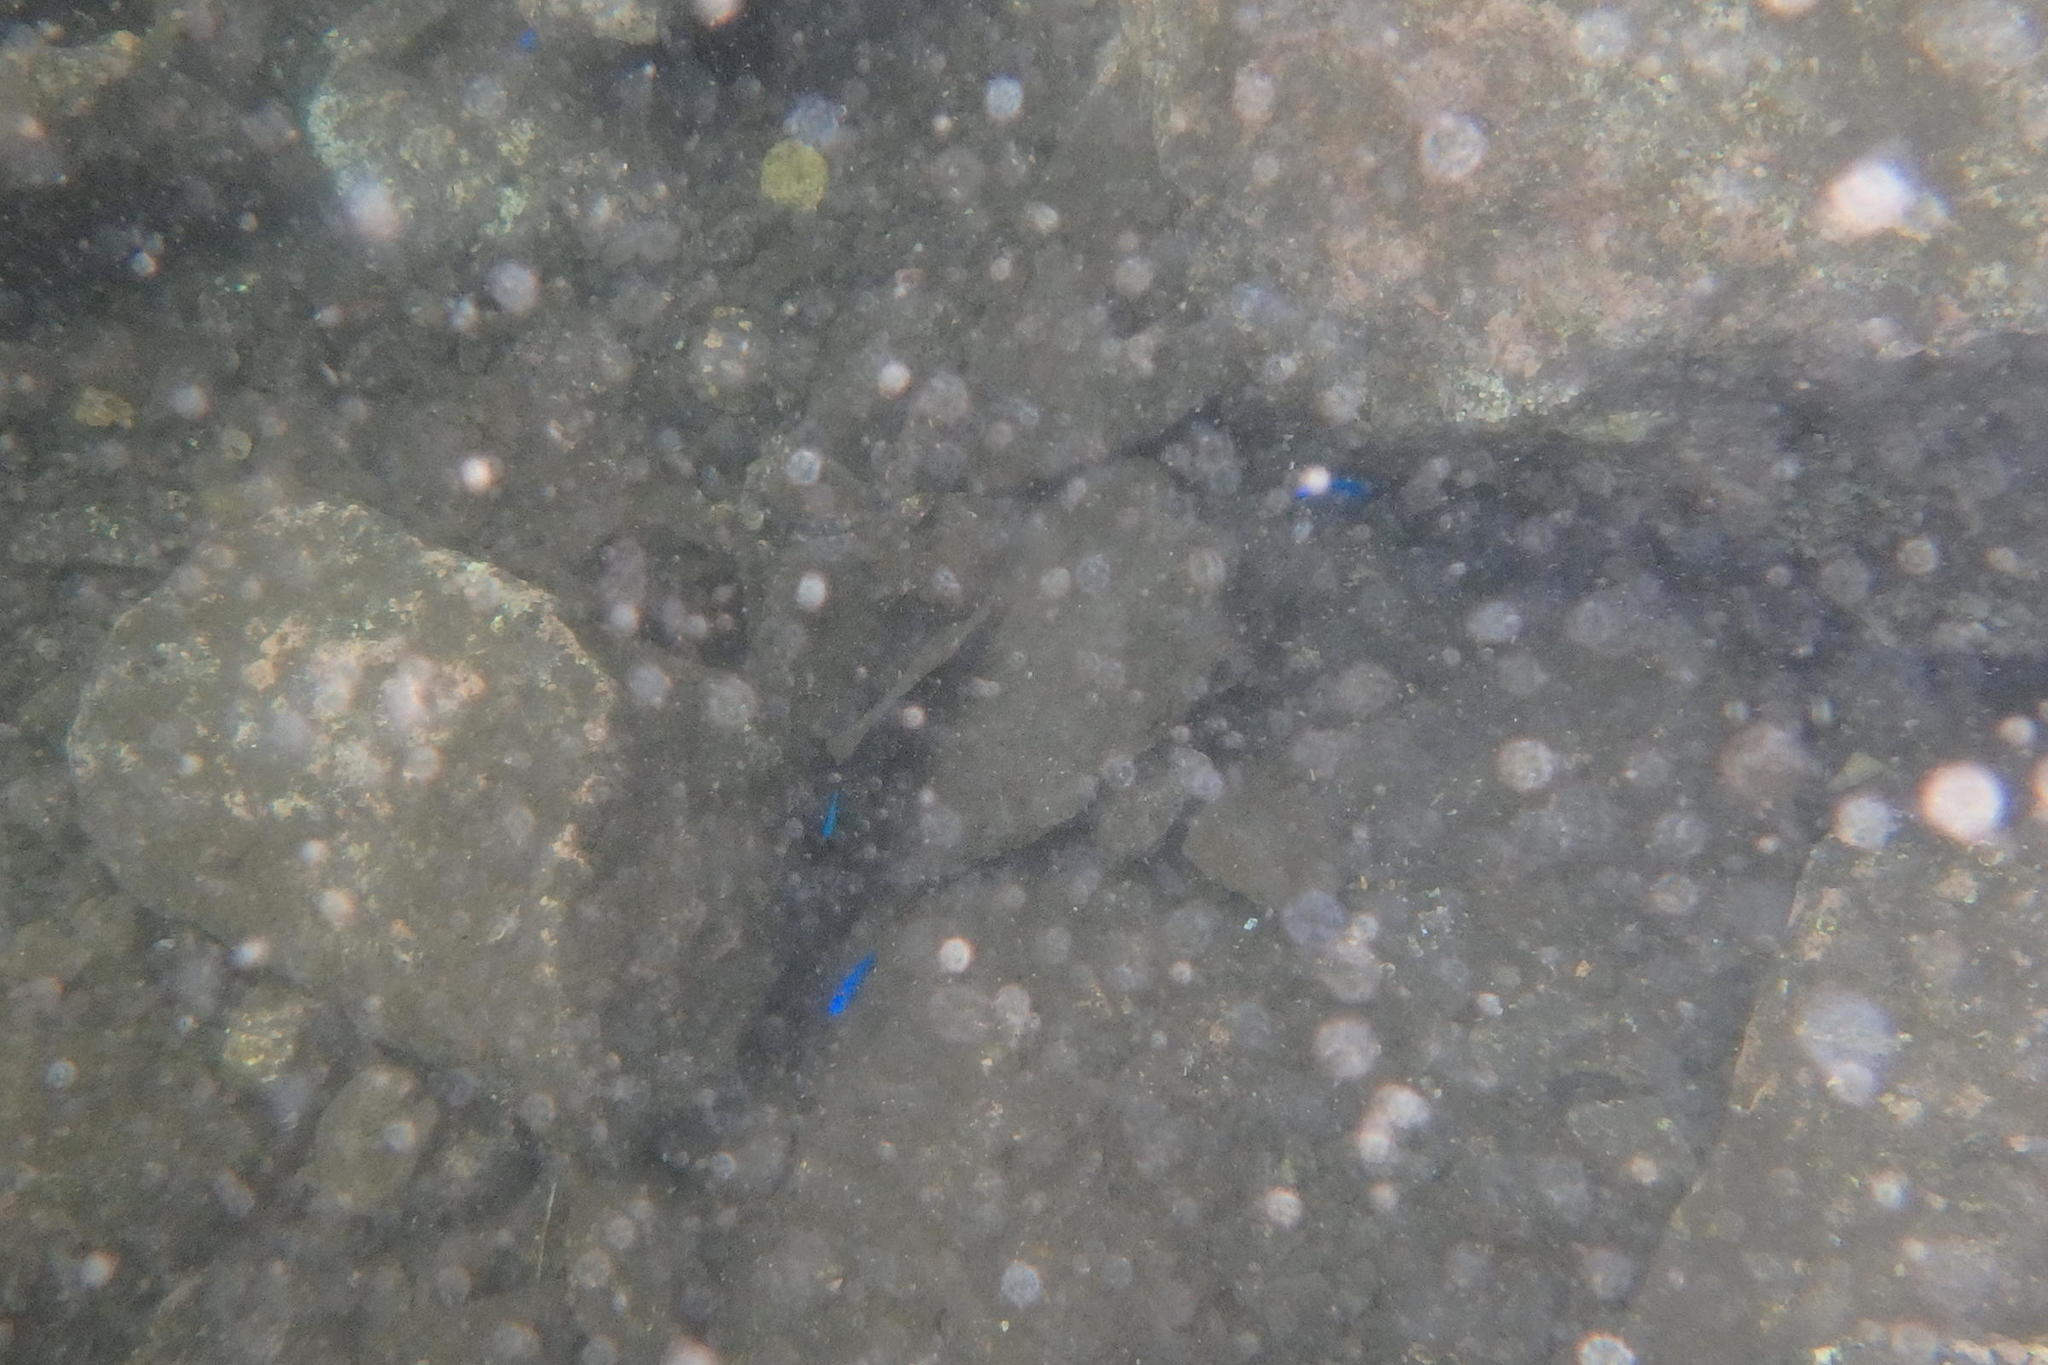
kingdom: Animalia
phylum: Chordata
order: Perciformes
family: Pomacentridae
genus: Pomacentrus
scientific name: Pomacentrus coelestis
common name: Neon damsel
